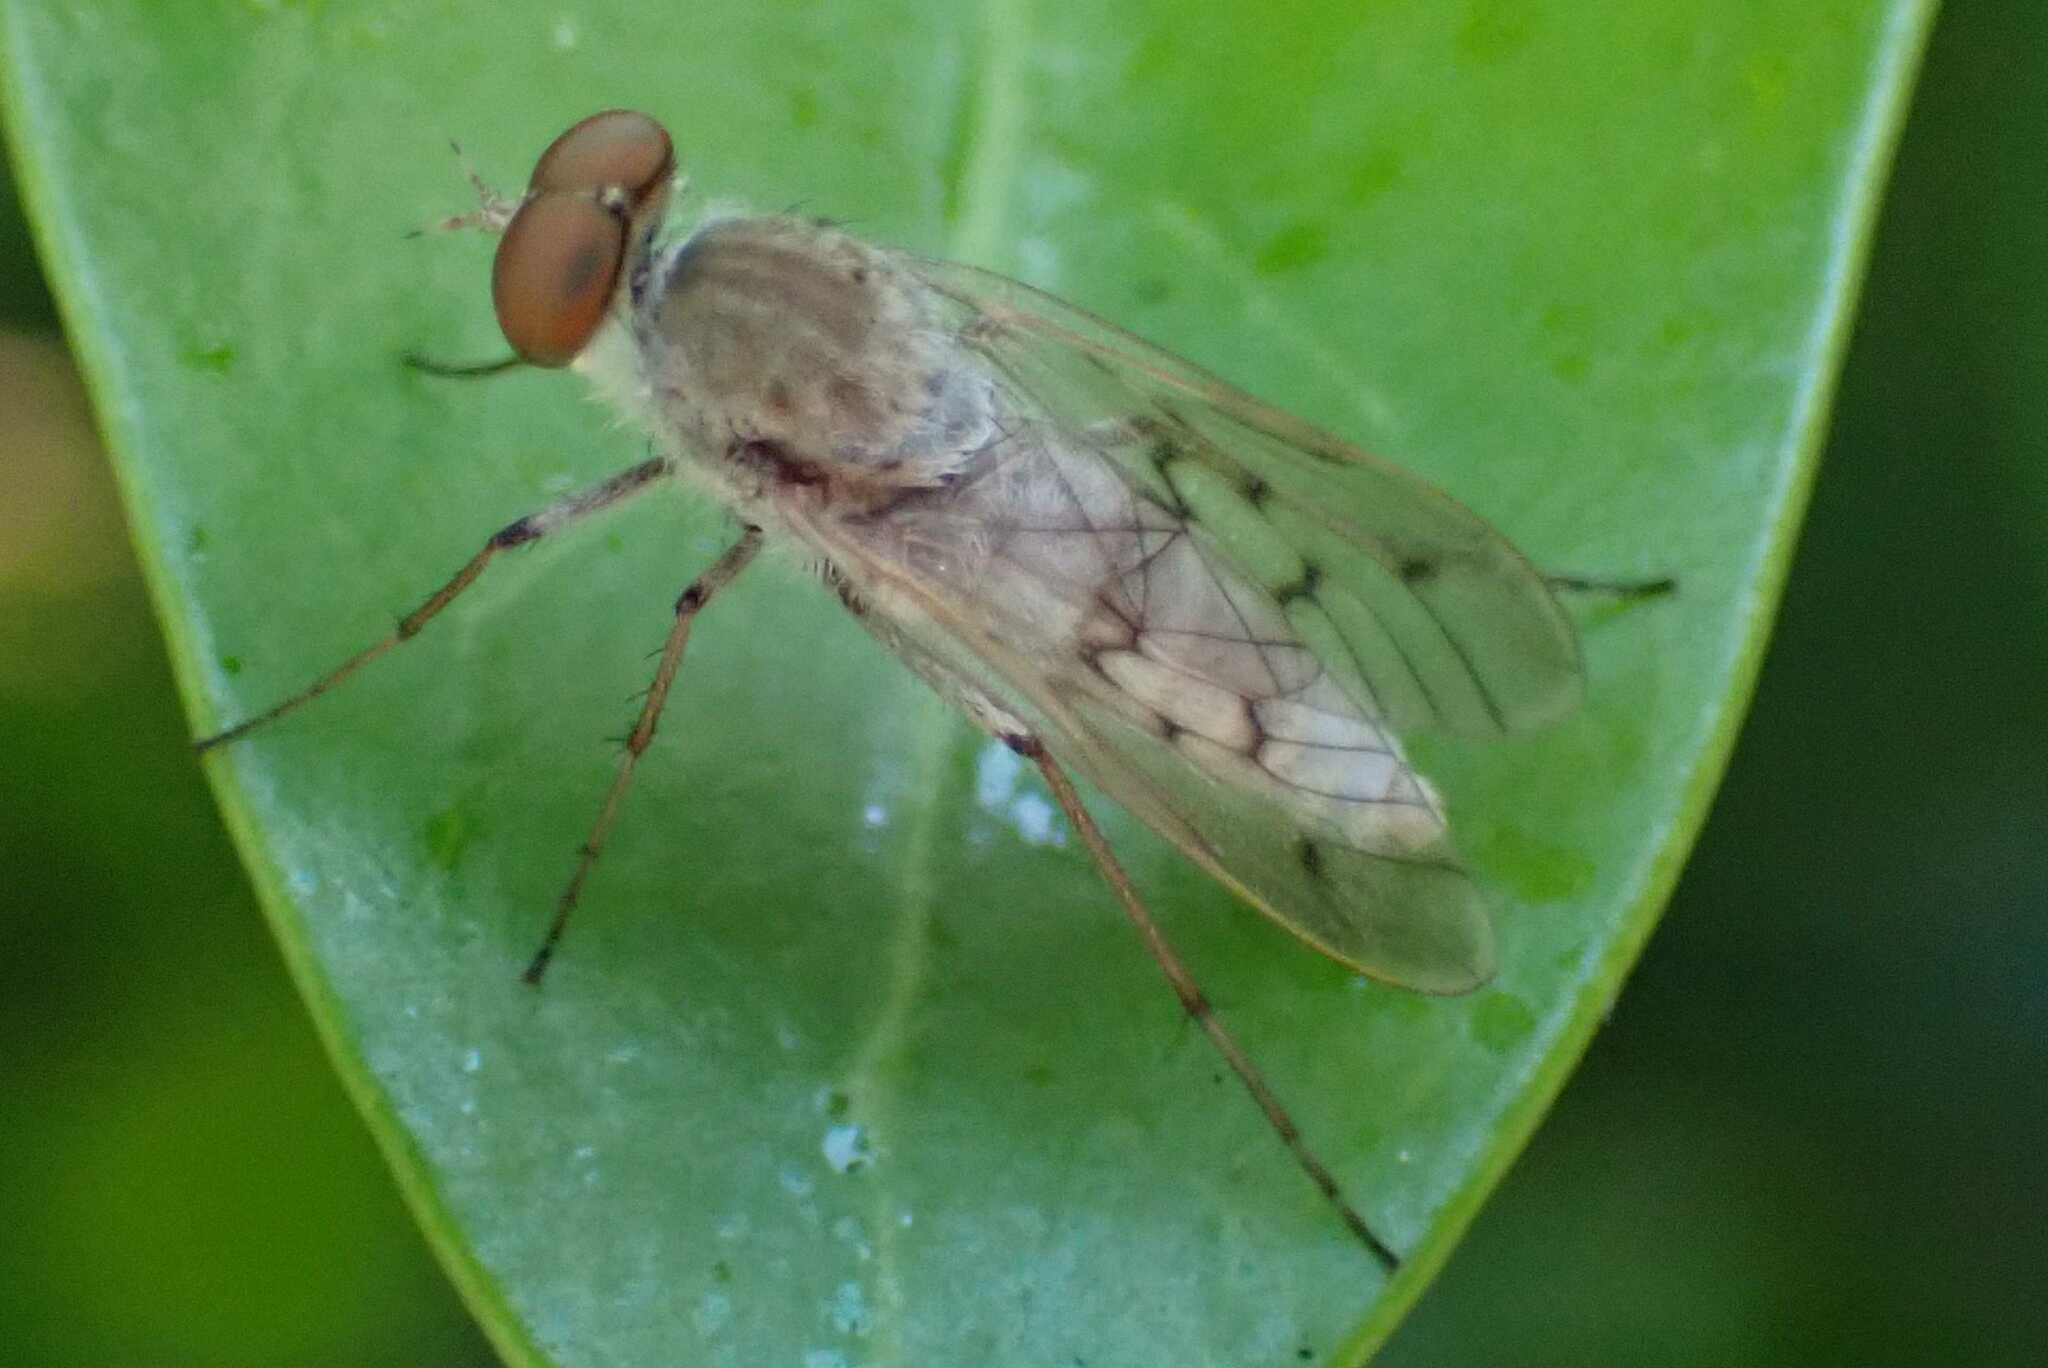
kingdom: Animalia
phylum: Arthropoda
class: Insecta
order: Diptera
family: Therevidae
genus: Irwiniella
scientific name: Irwiniella natalensis
